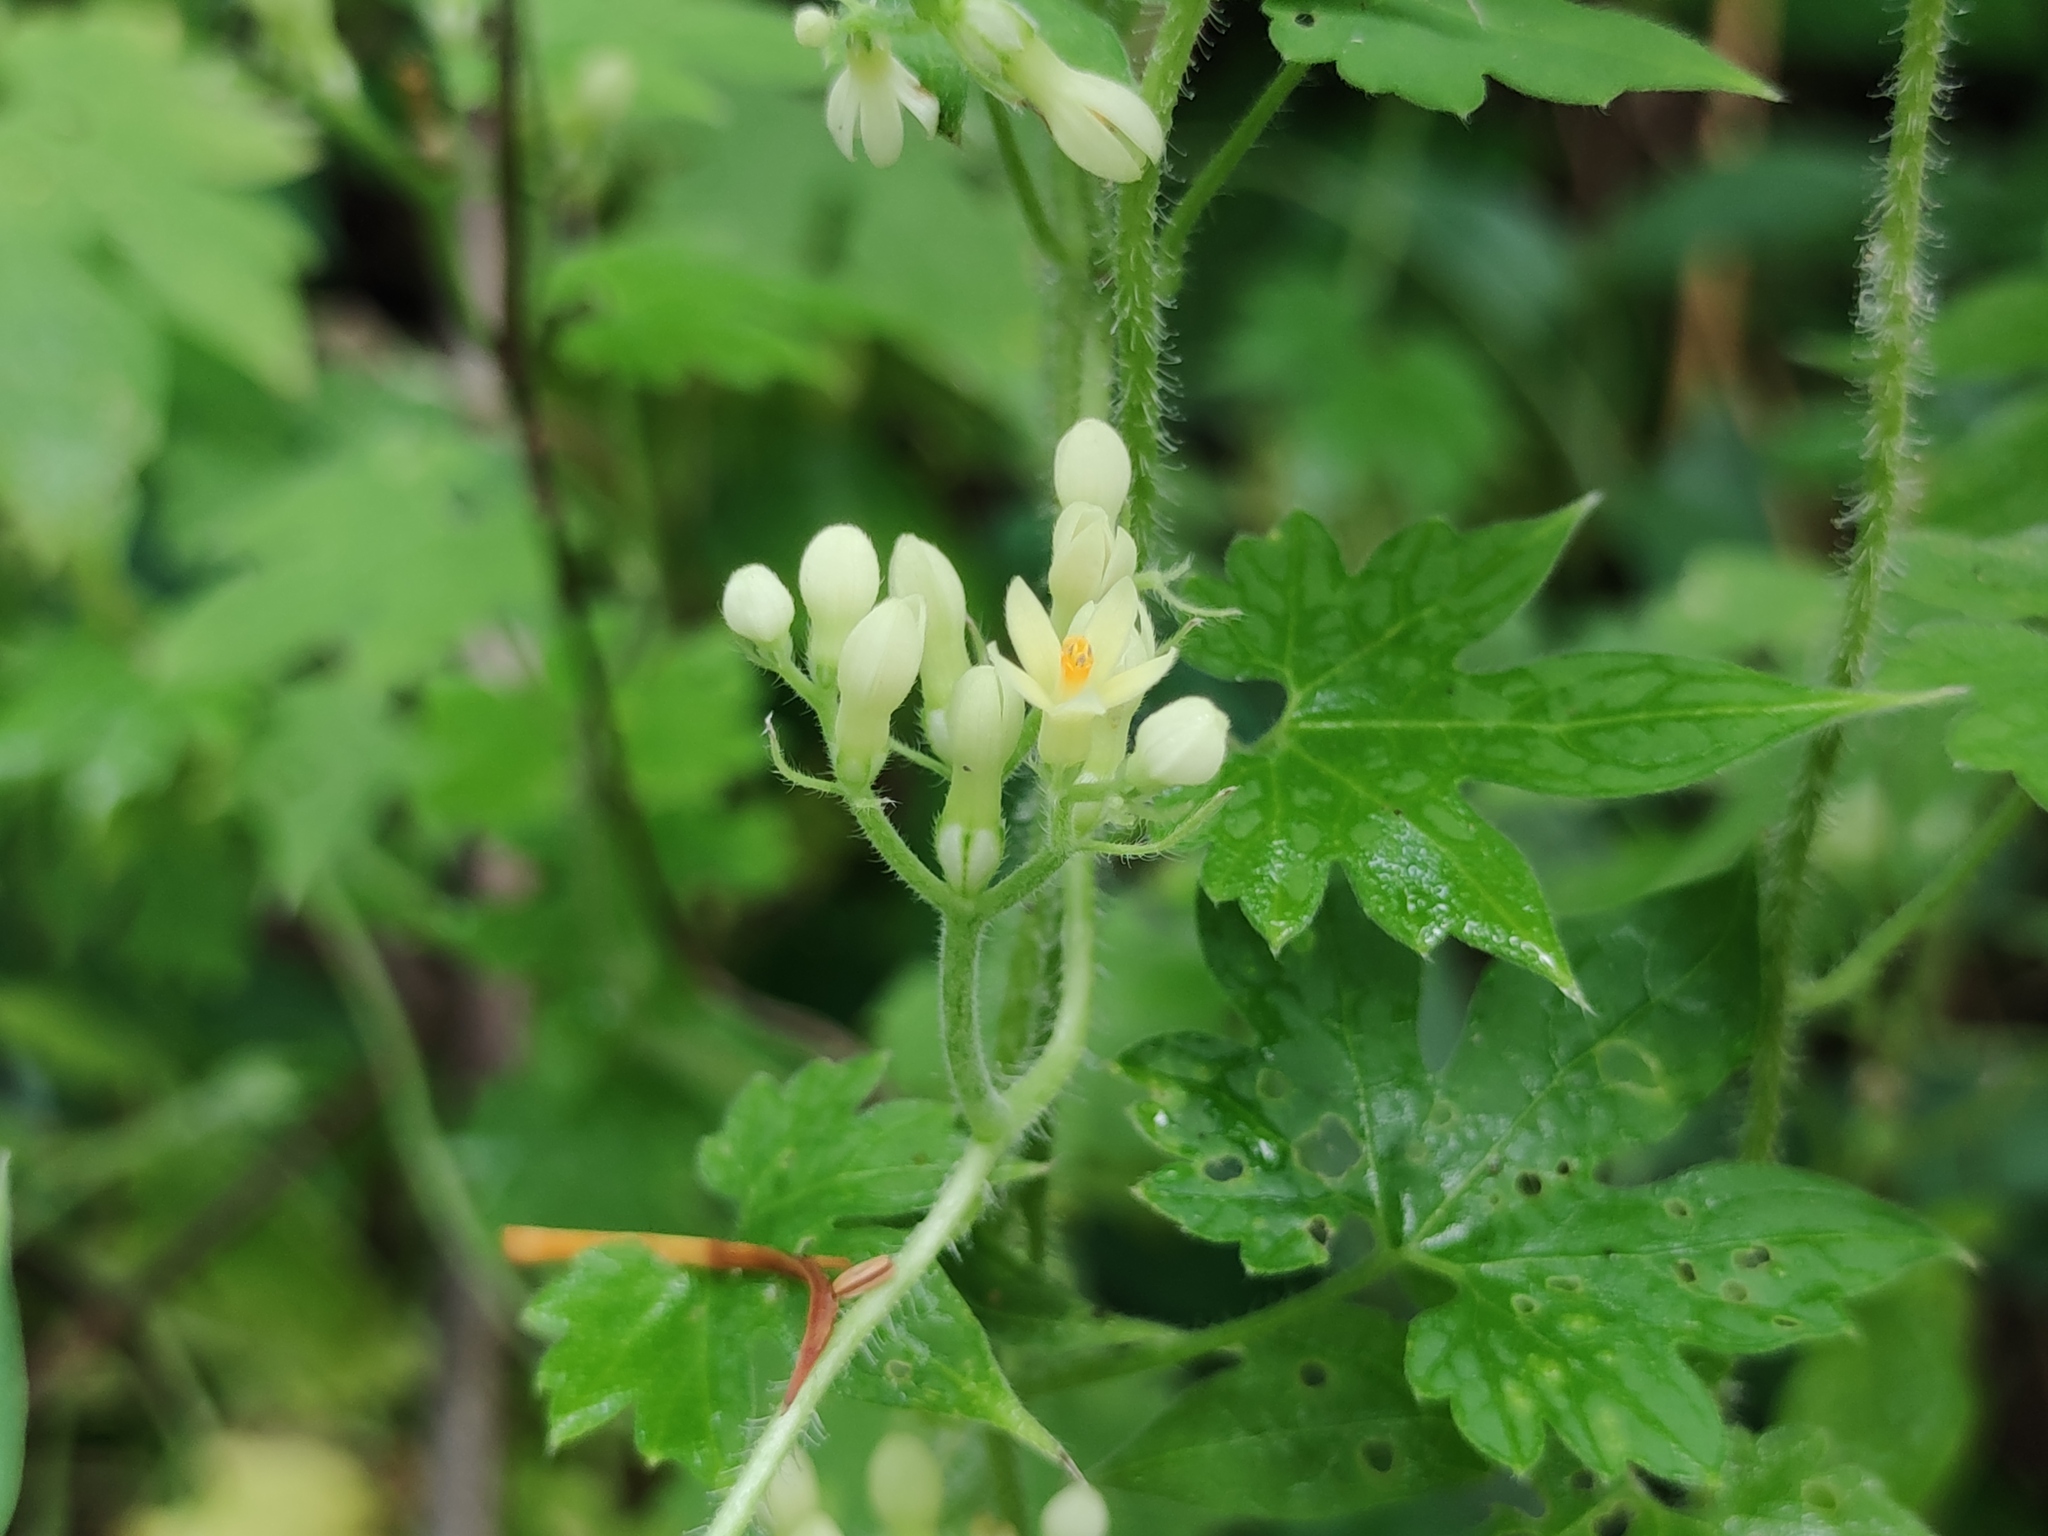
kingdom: Plantae
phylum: Tracheophyta
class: Magnoliopsida
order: Cornales
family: Loasaceae
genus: Gronovia
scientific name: Gronovia scandens
